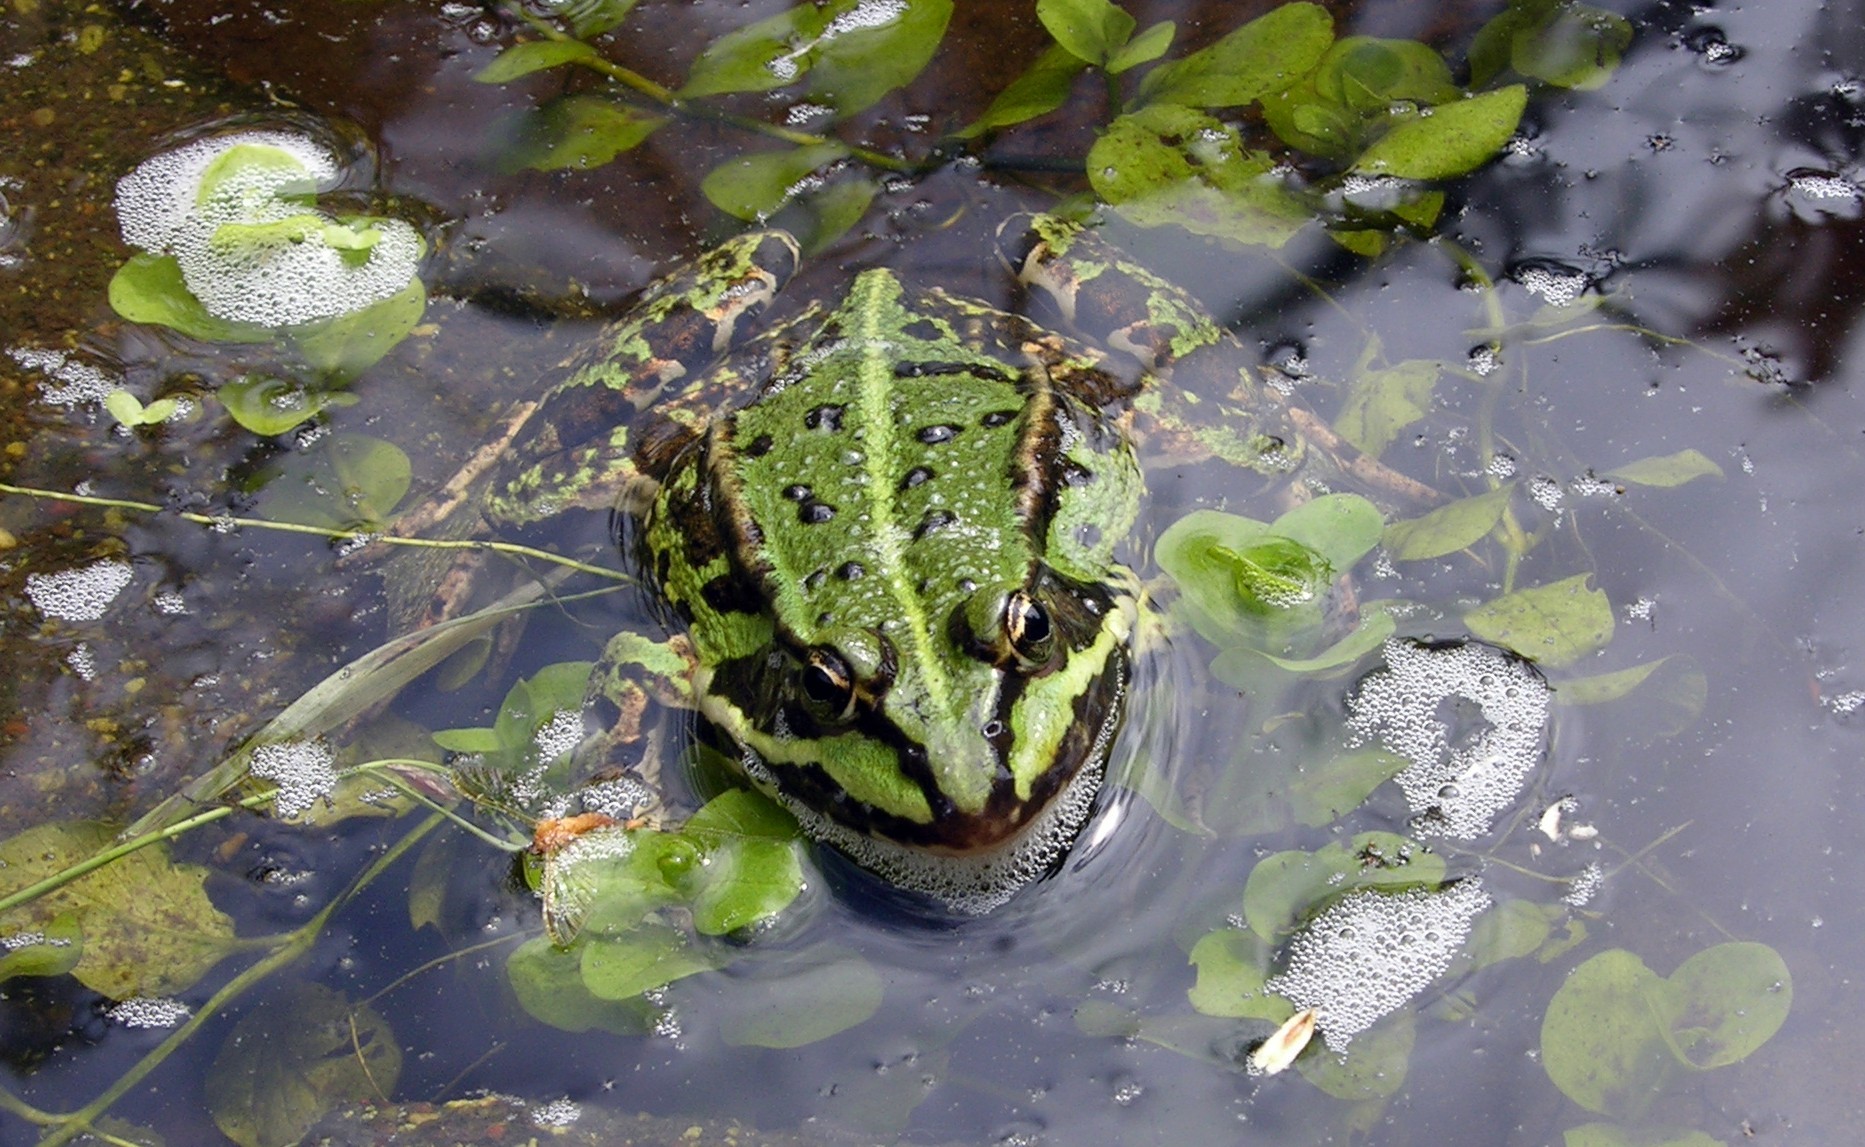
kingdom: Animalia
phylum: Chordata
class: Amphibia
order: Anura
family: Ranidae
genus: Pelophylax
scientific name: Pelophylax lessonae
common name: Pool frog
